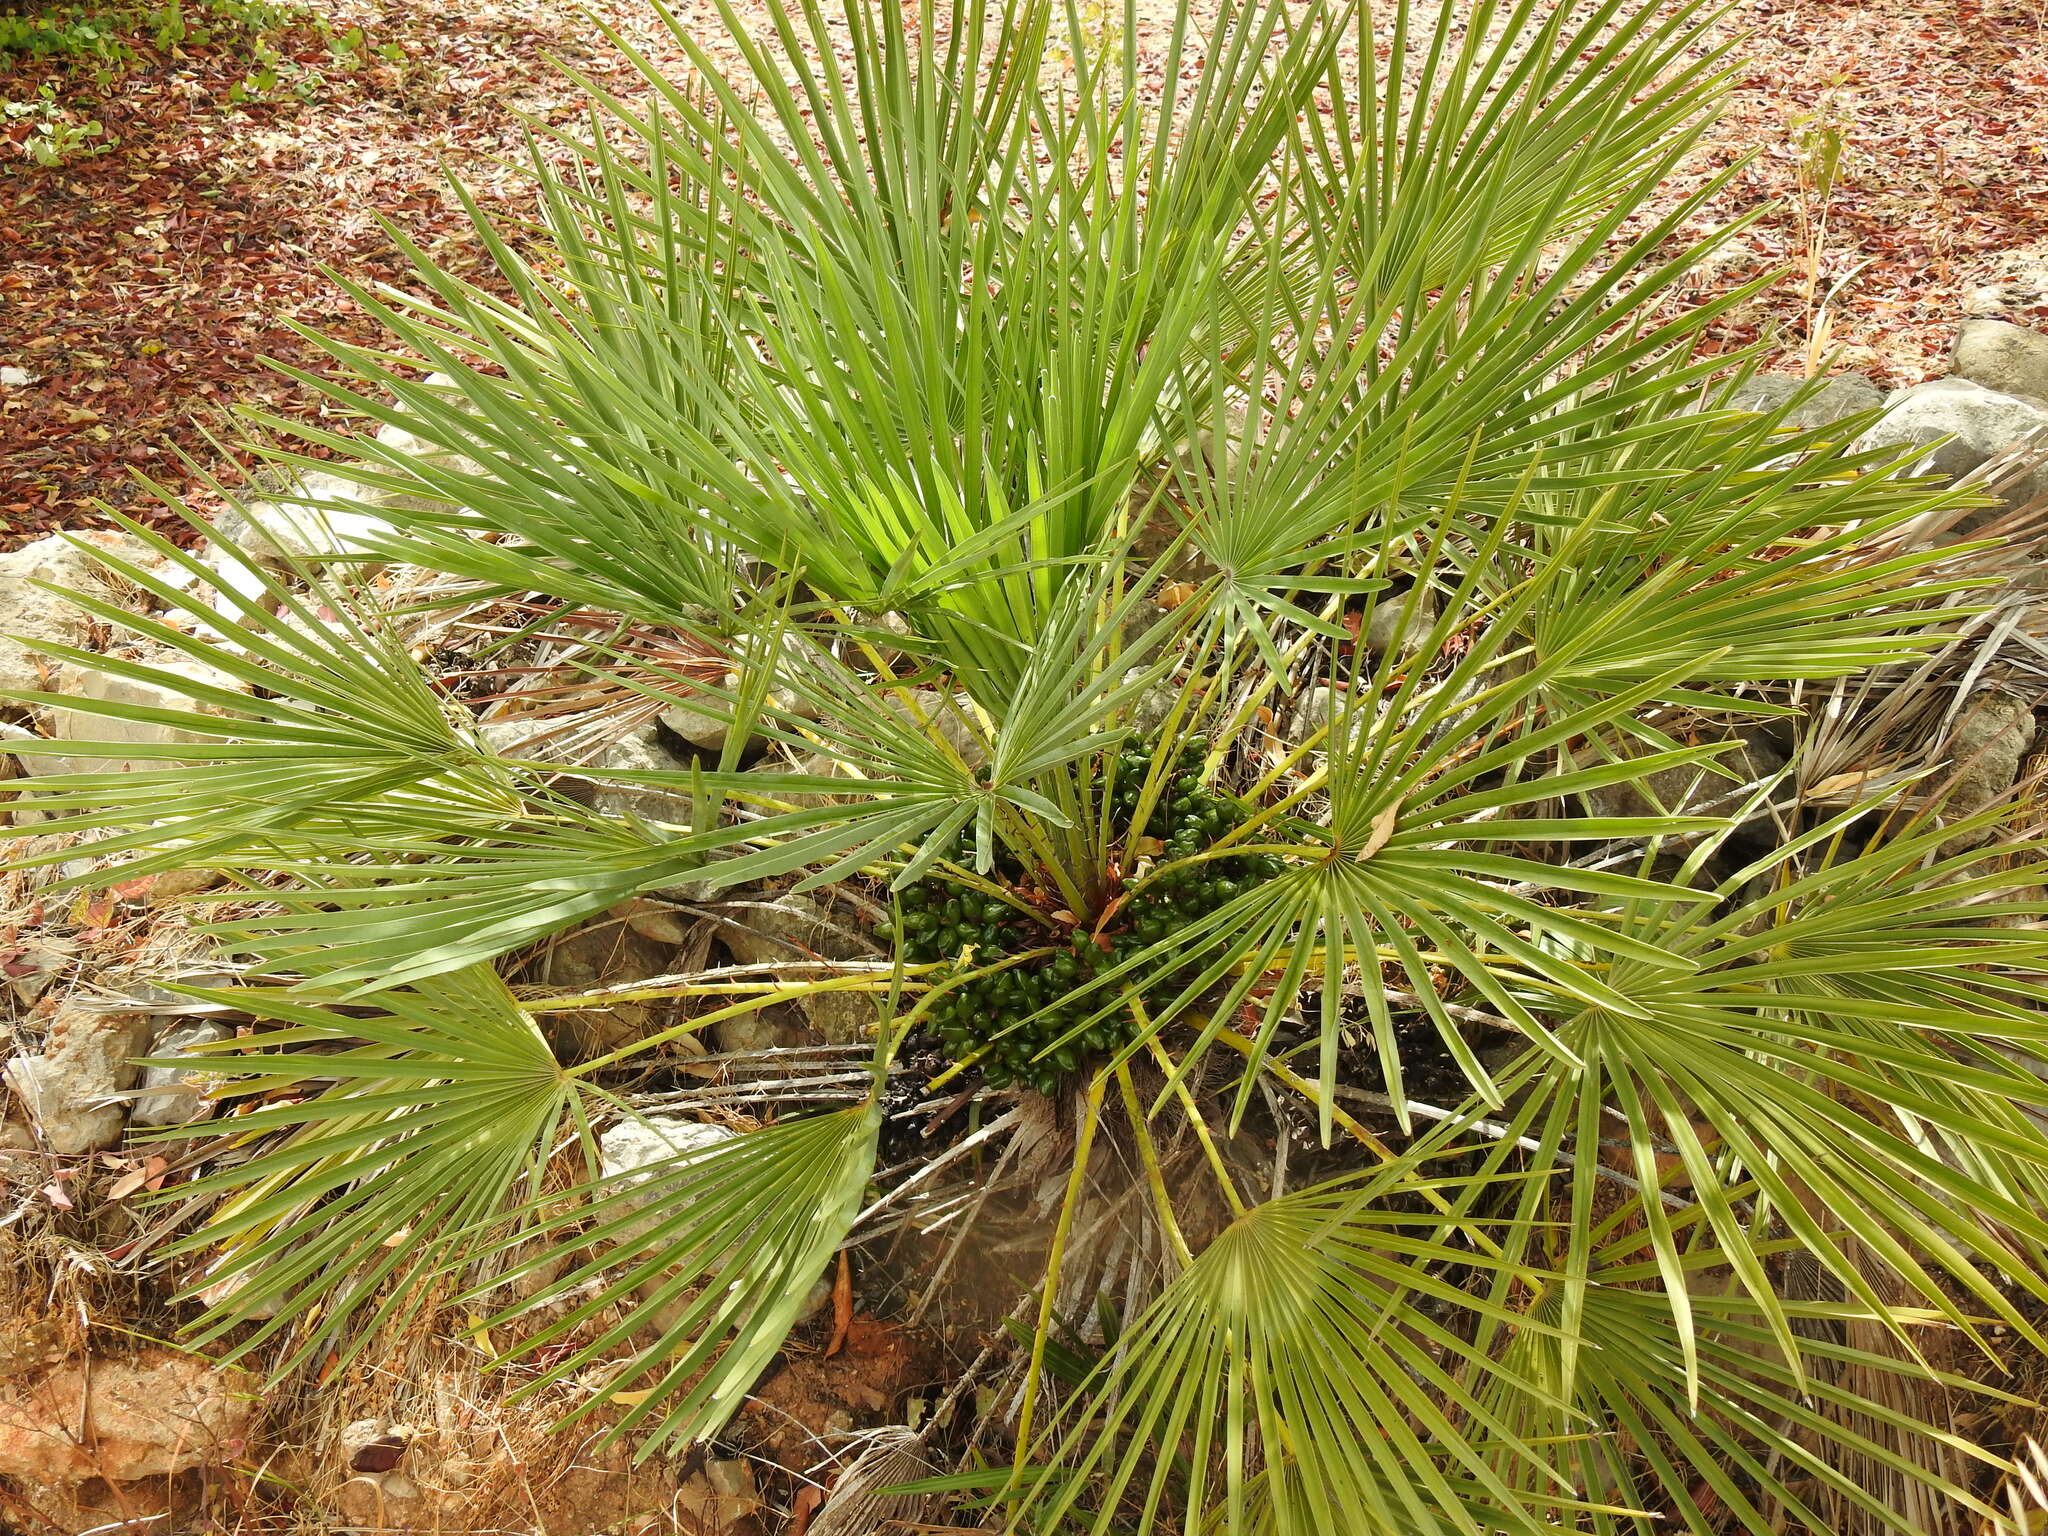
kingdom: Plantae
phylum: Tracheophyta
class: Liliopsida
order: Arecales
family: Arecaceae
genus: Chamaerops
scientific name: Chamaerops humilis
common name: Dwarf fan palm
